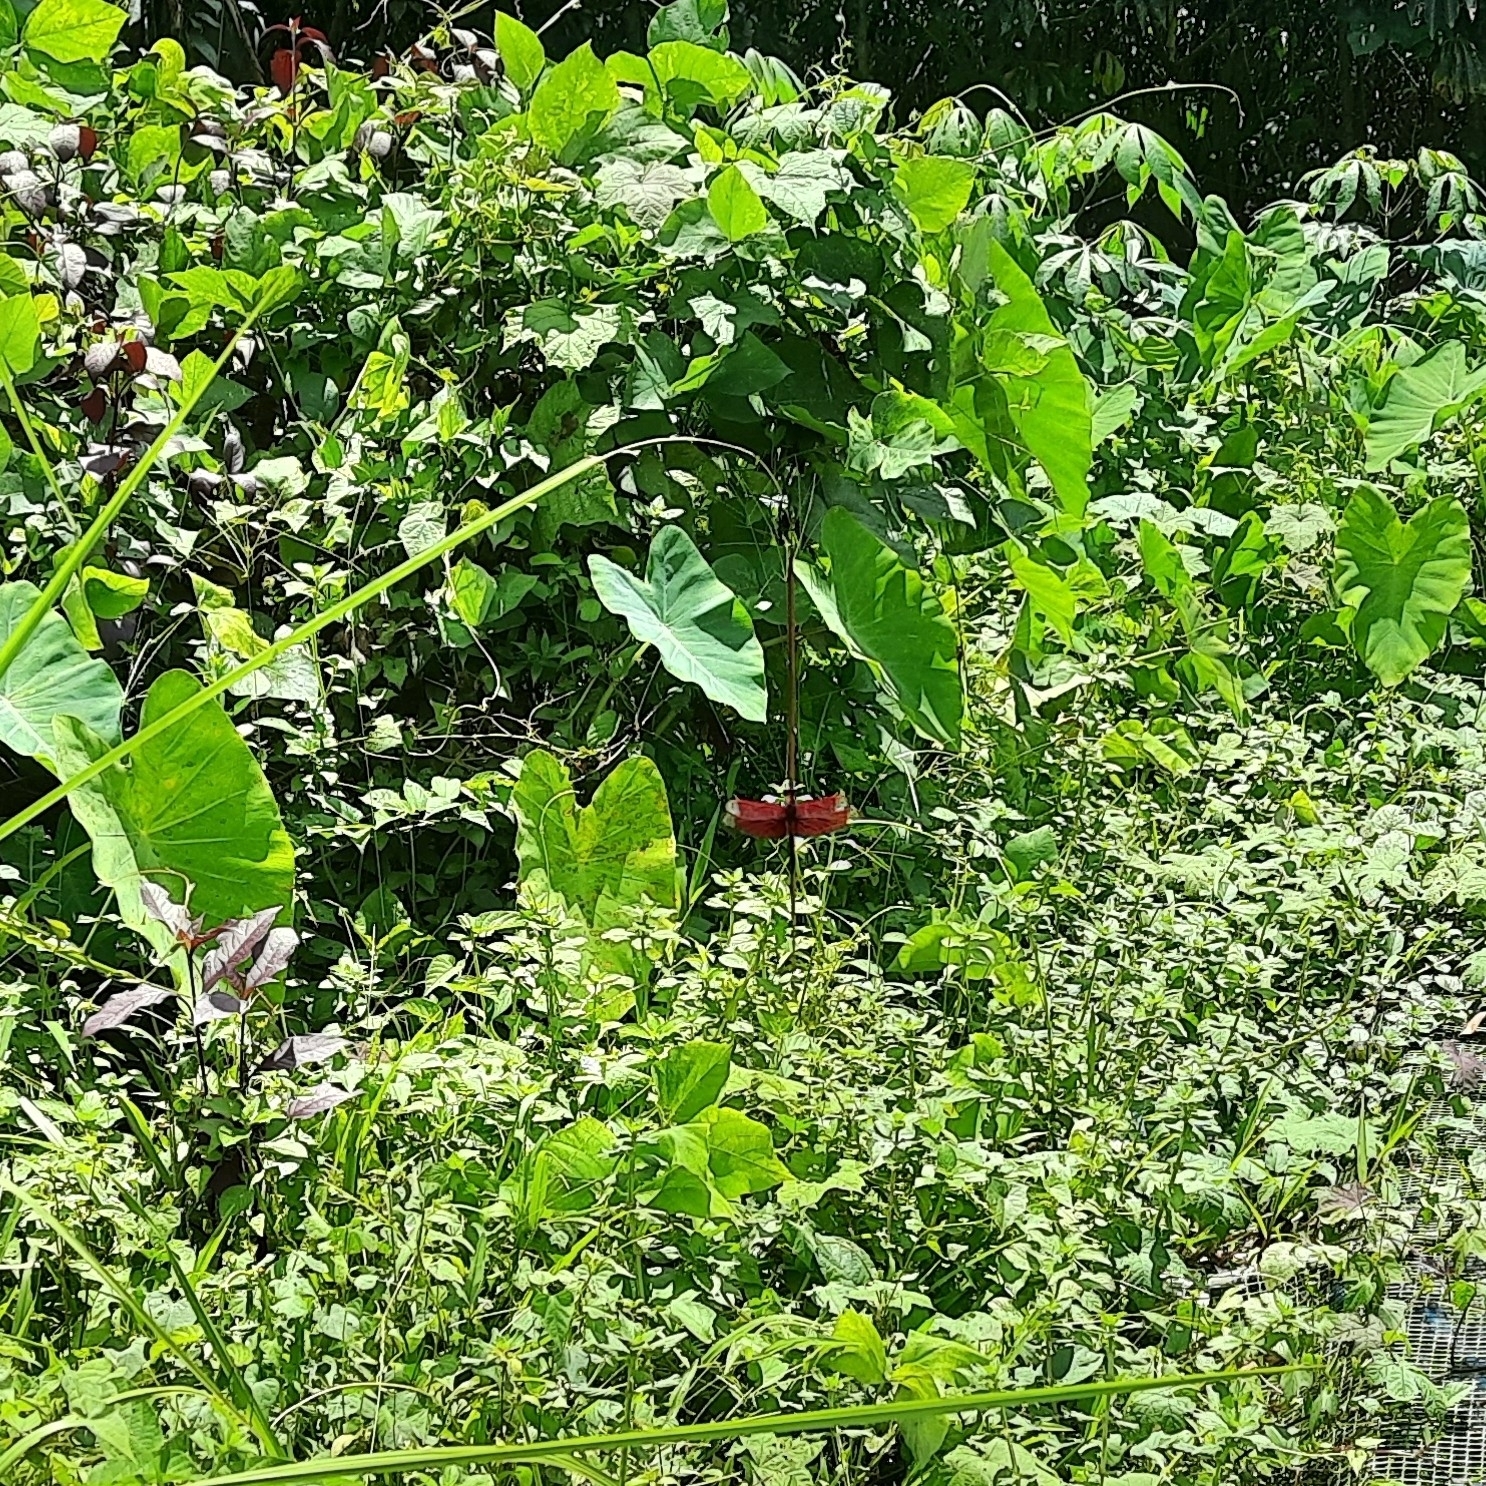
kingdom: Animalia
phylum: Arthropoda
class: Insecta
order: Odonata
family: Libellulidae
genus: Neurothemis
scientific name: Neurothemis fulvia
